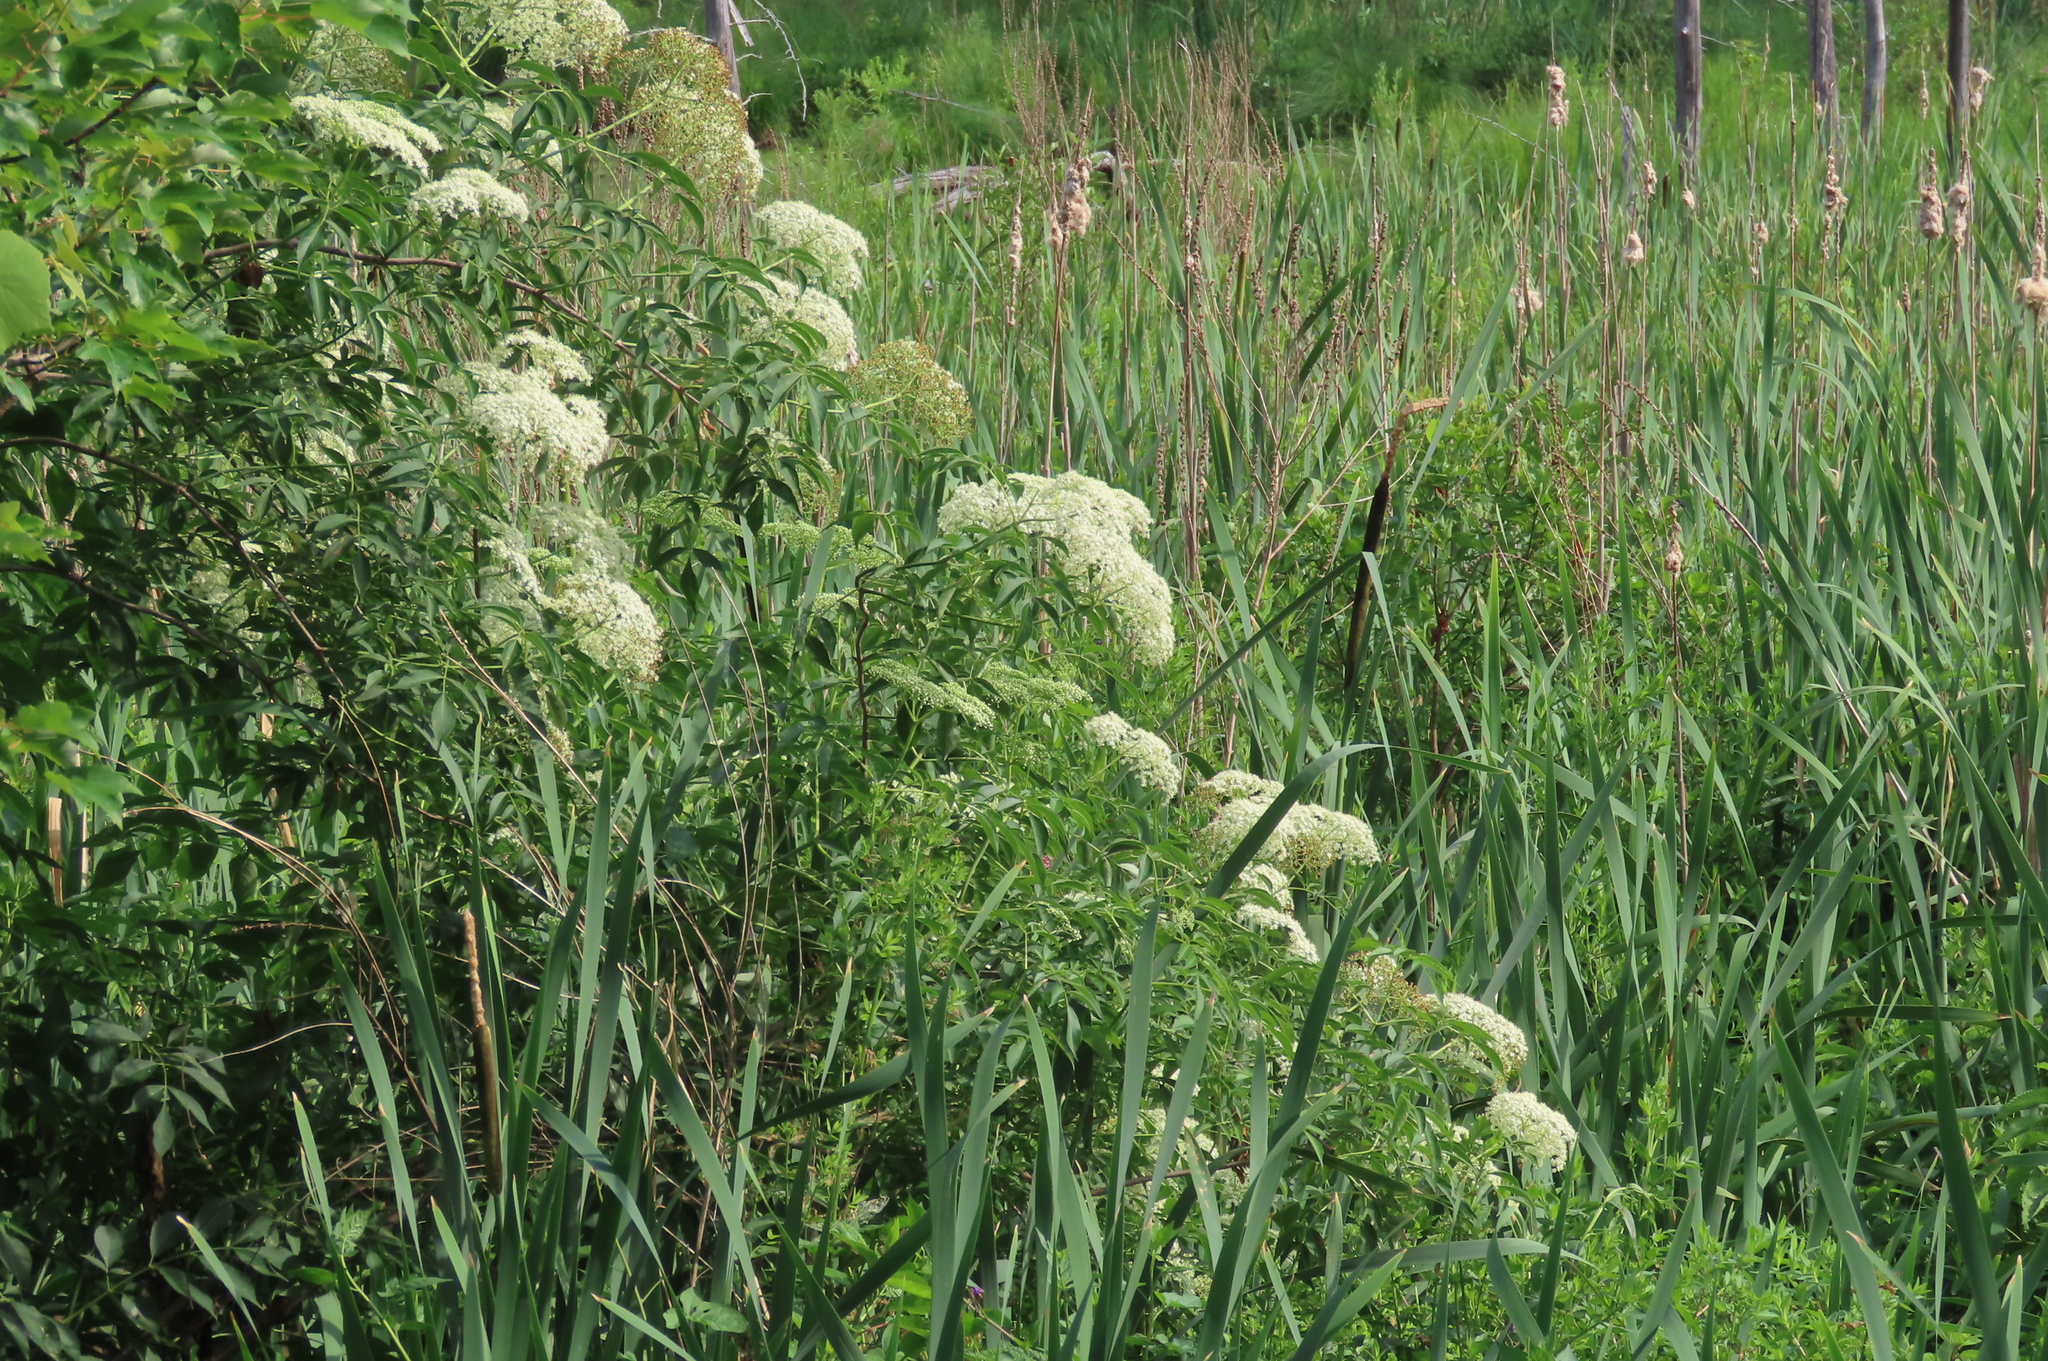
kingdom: Plantae
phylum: Tracheophyta
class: Magnoliopsida
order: Dipsacales
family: Viburnaceae
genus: Sambucus
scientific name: Sambucus canadensis
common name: American elder
